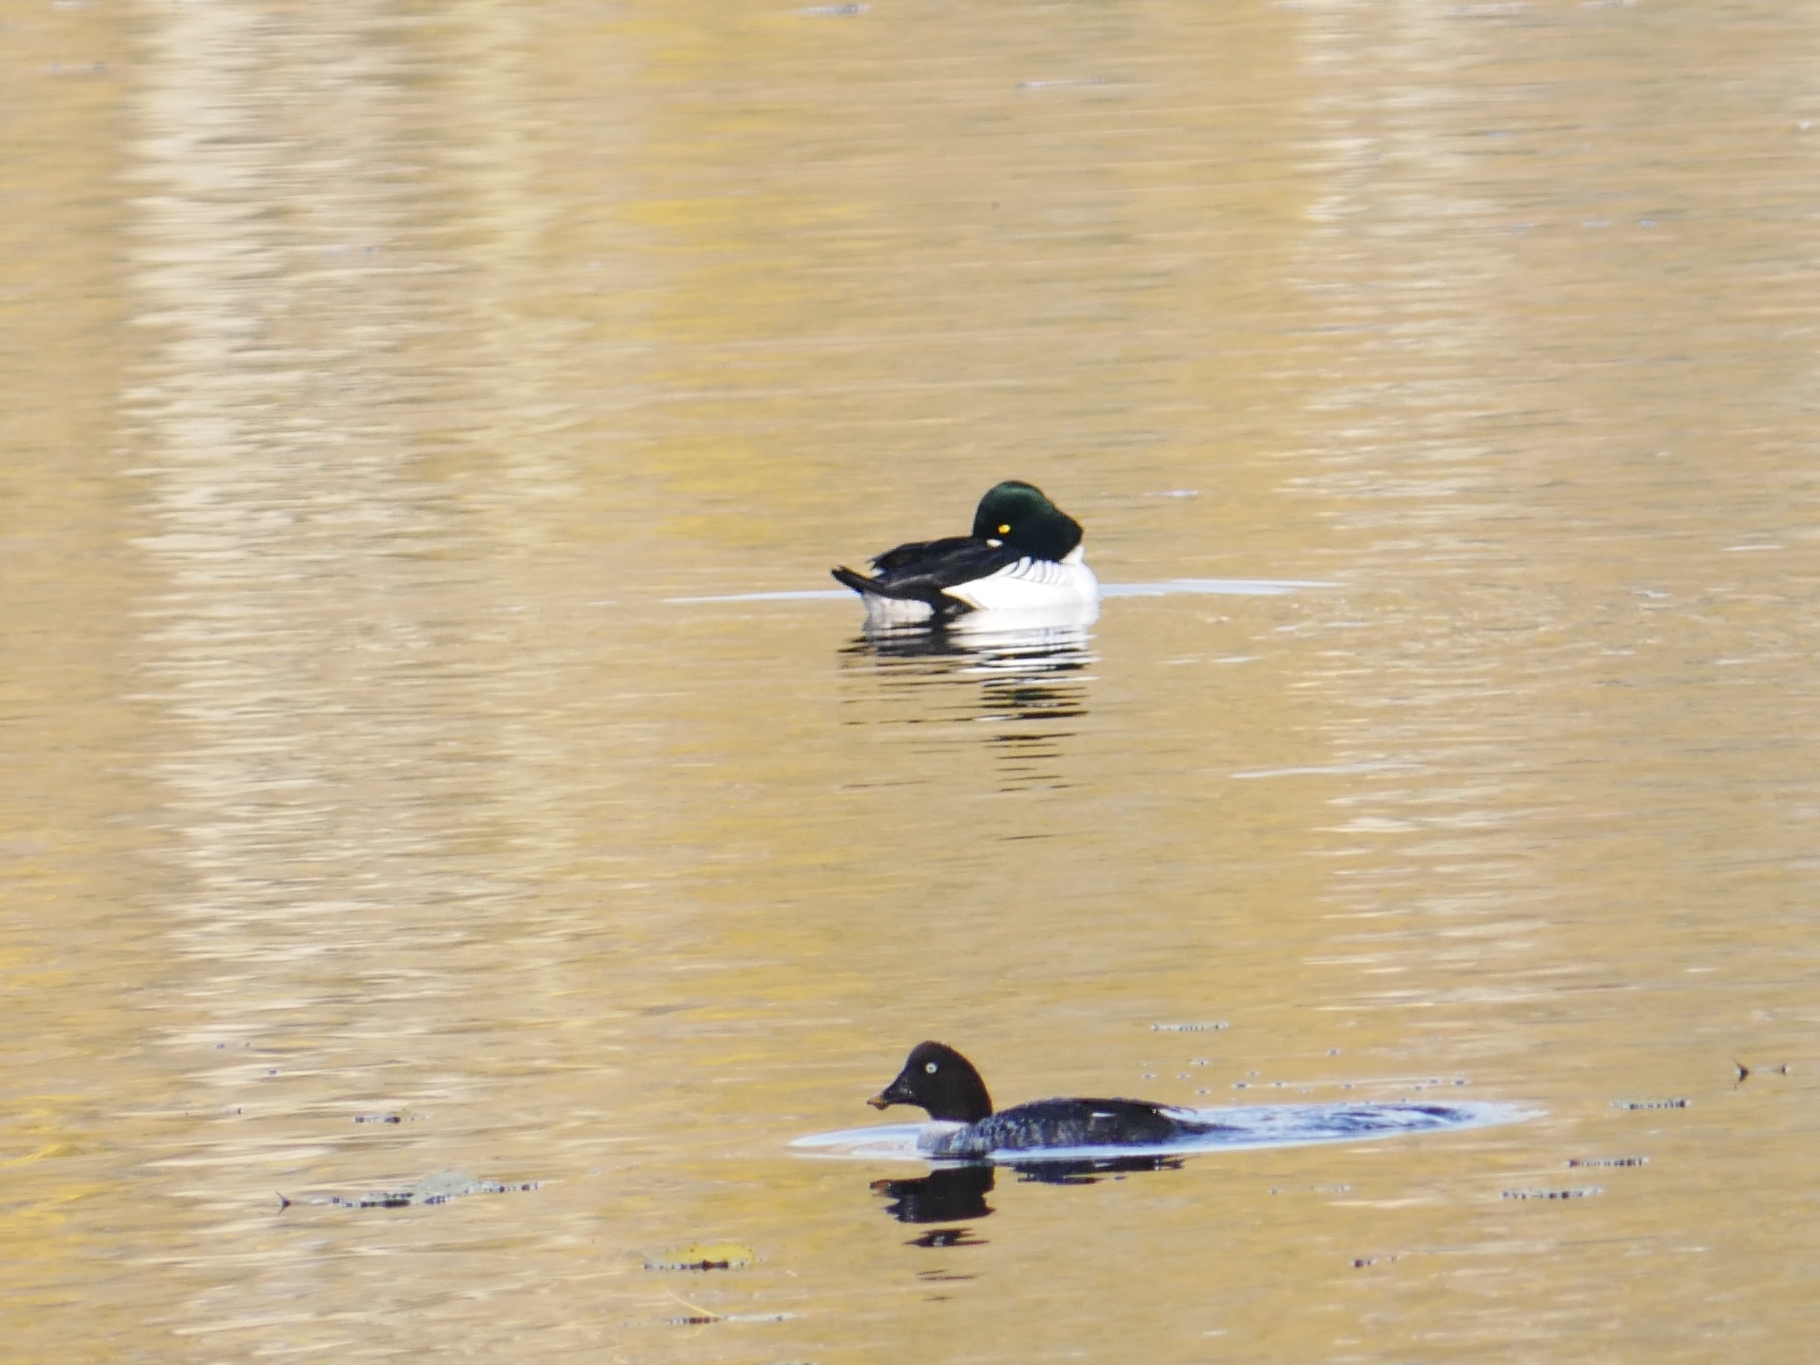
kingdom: Animalia
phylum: Chordata
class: Aves
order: Anseriformes
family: Anatidae
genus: Bucephala
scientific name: Bucephala clangula
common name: Common goldeneye
